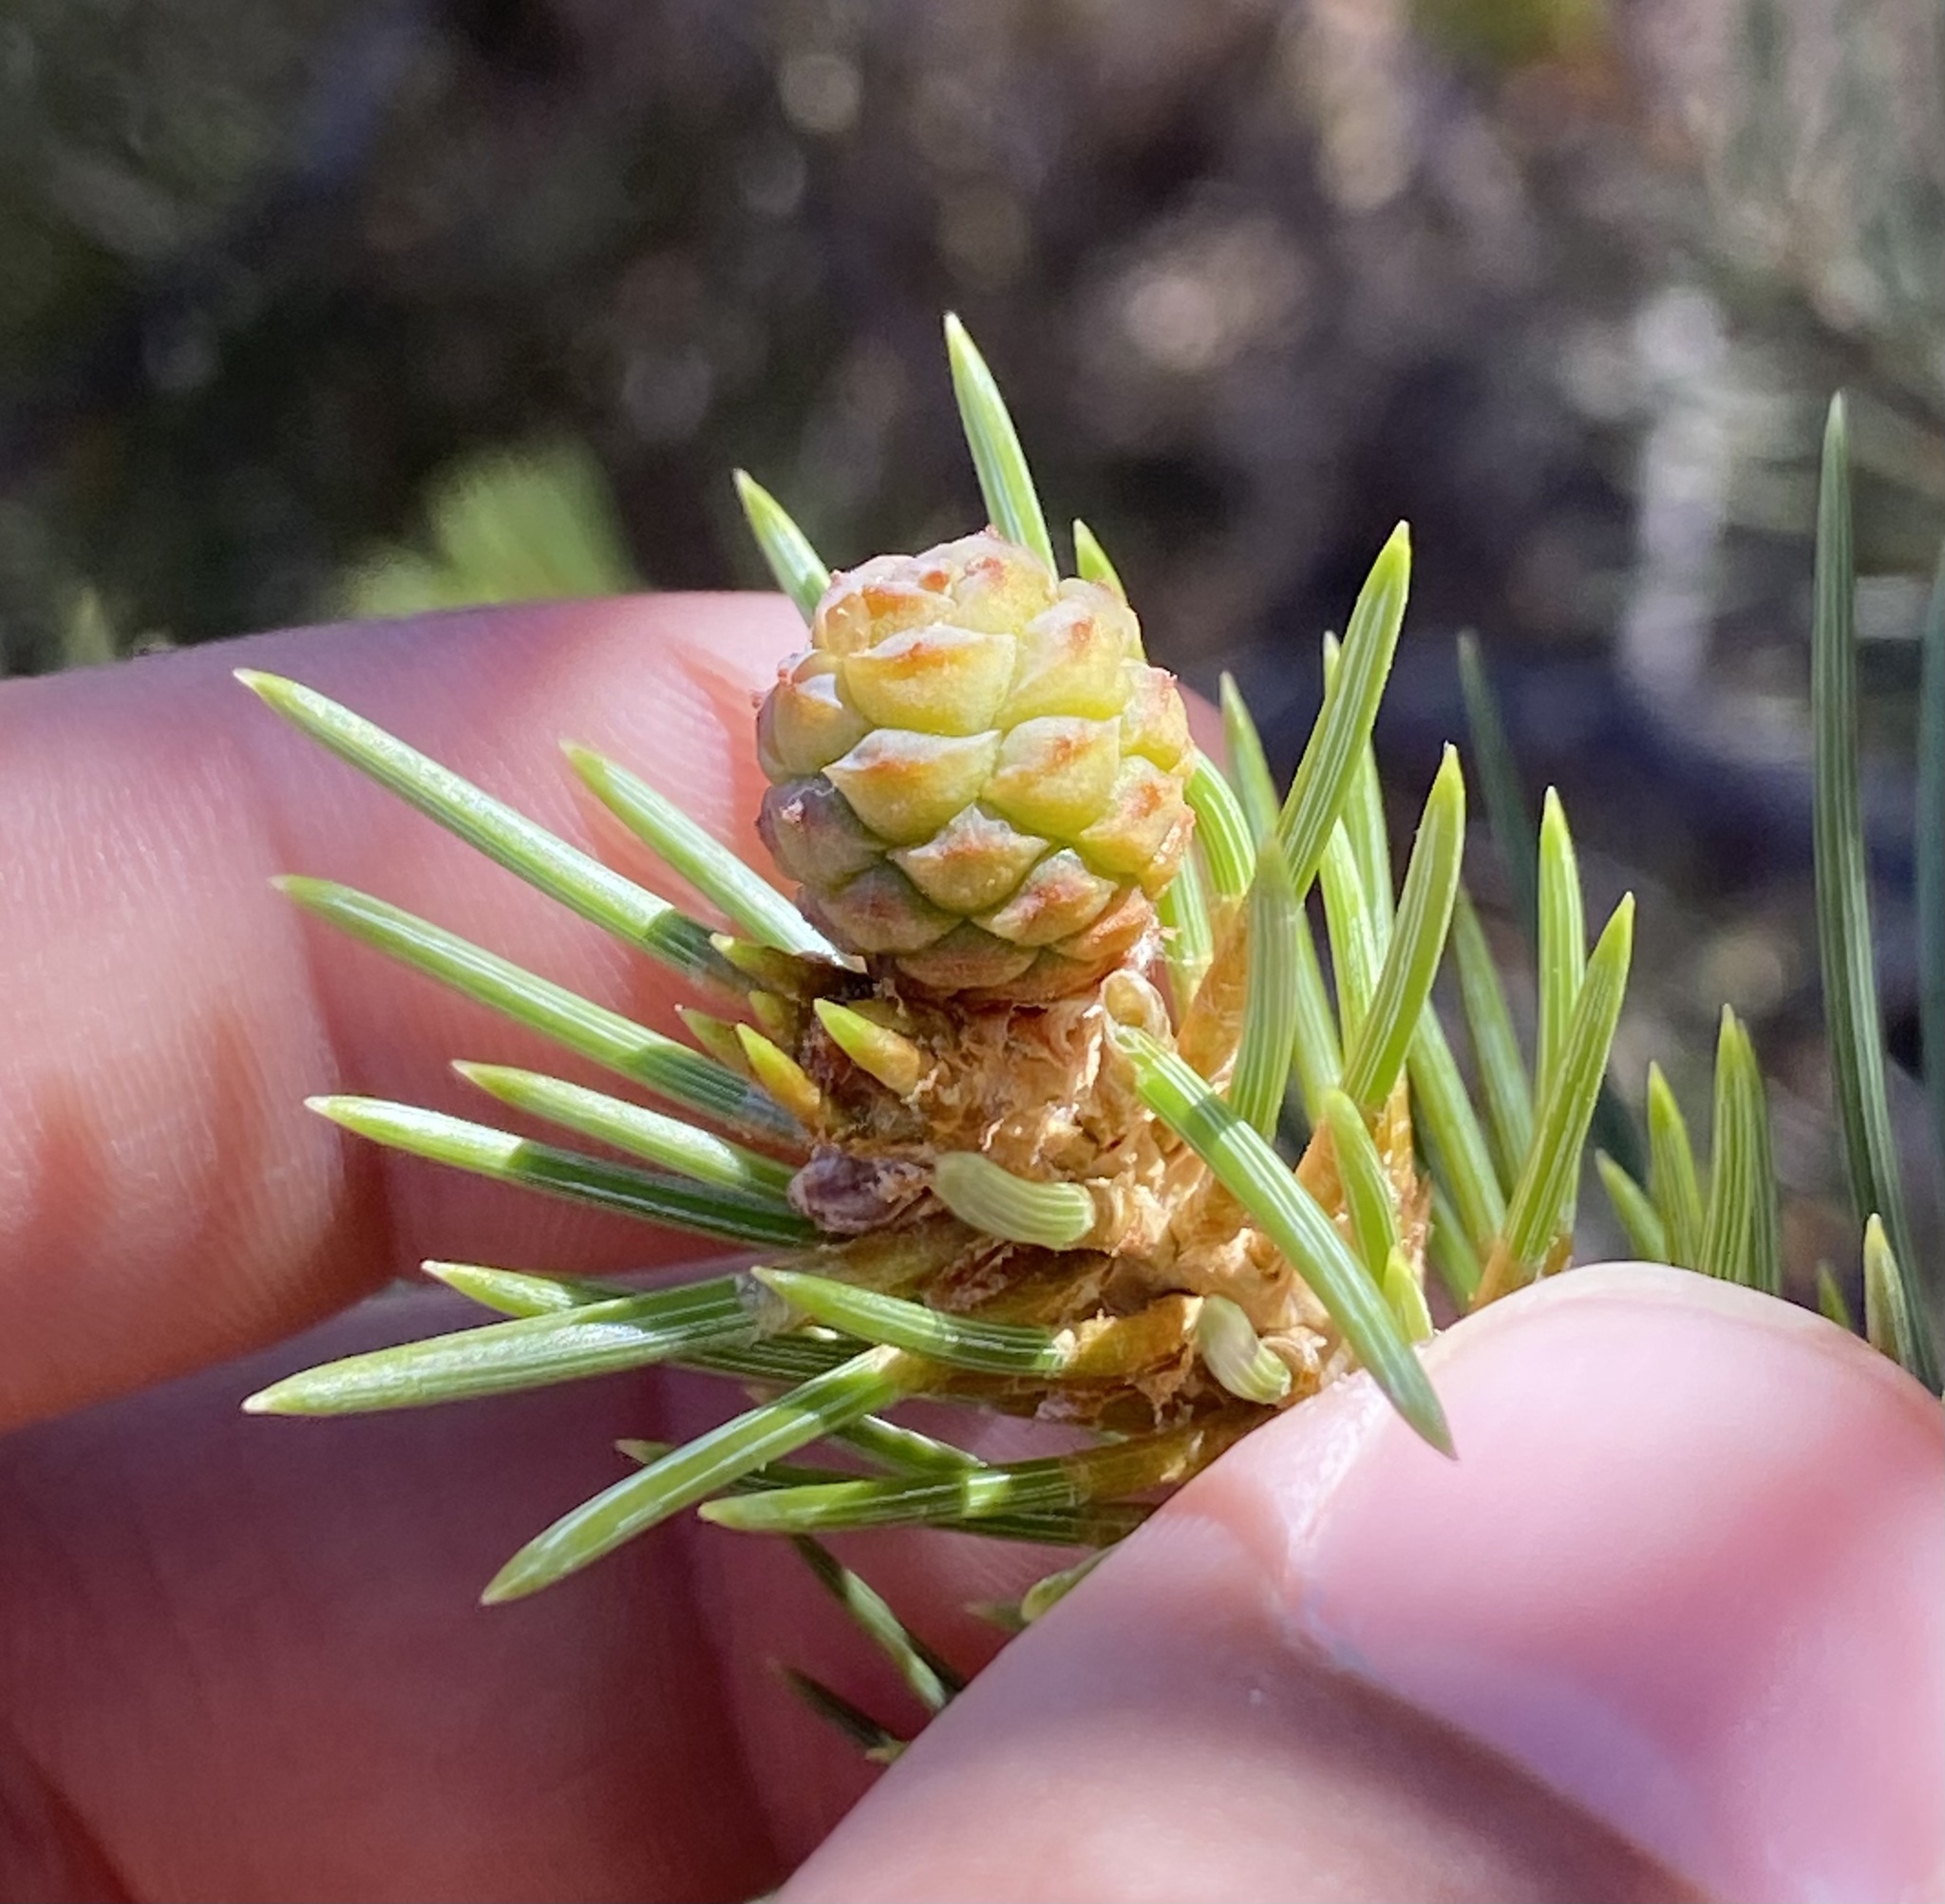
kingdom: Plantae
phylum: Tracheophyta
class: Pinopsida
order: Pinales
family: Pinaceae
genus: Pinus
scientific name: Pinus monophylla
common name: One-leaved nut pine
